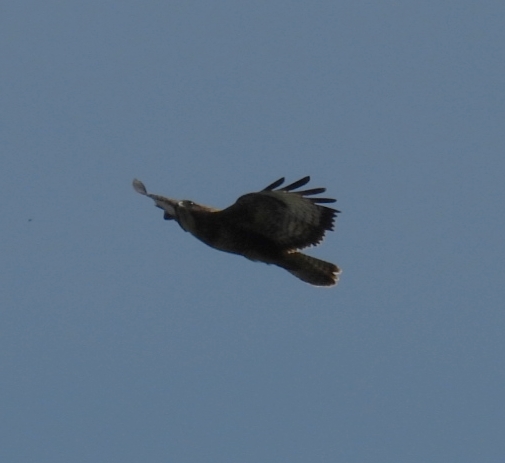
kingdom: Animalia
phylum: Chordata
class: Aves
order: Accipitriformes
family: Accipitridae
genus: Buteo
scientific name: Buteo buteo
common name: Common buzzard
